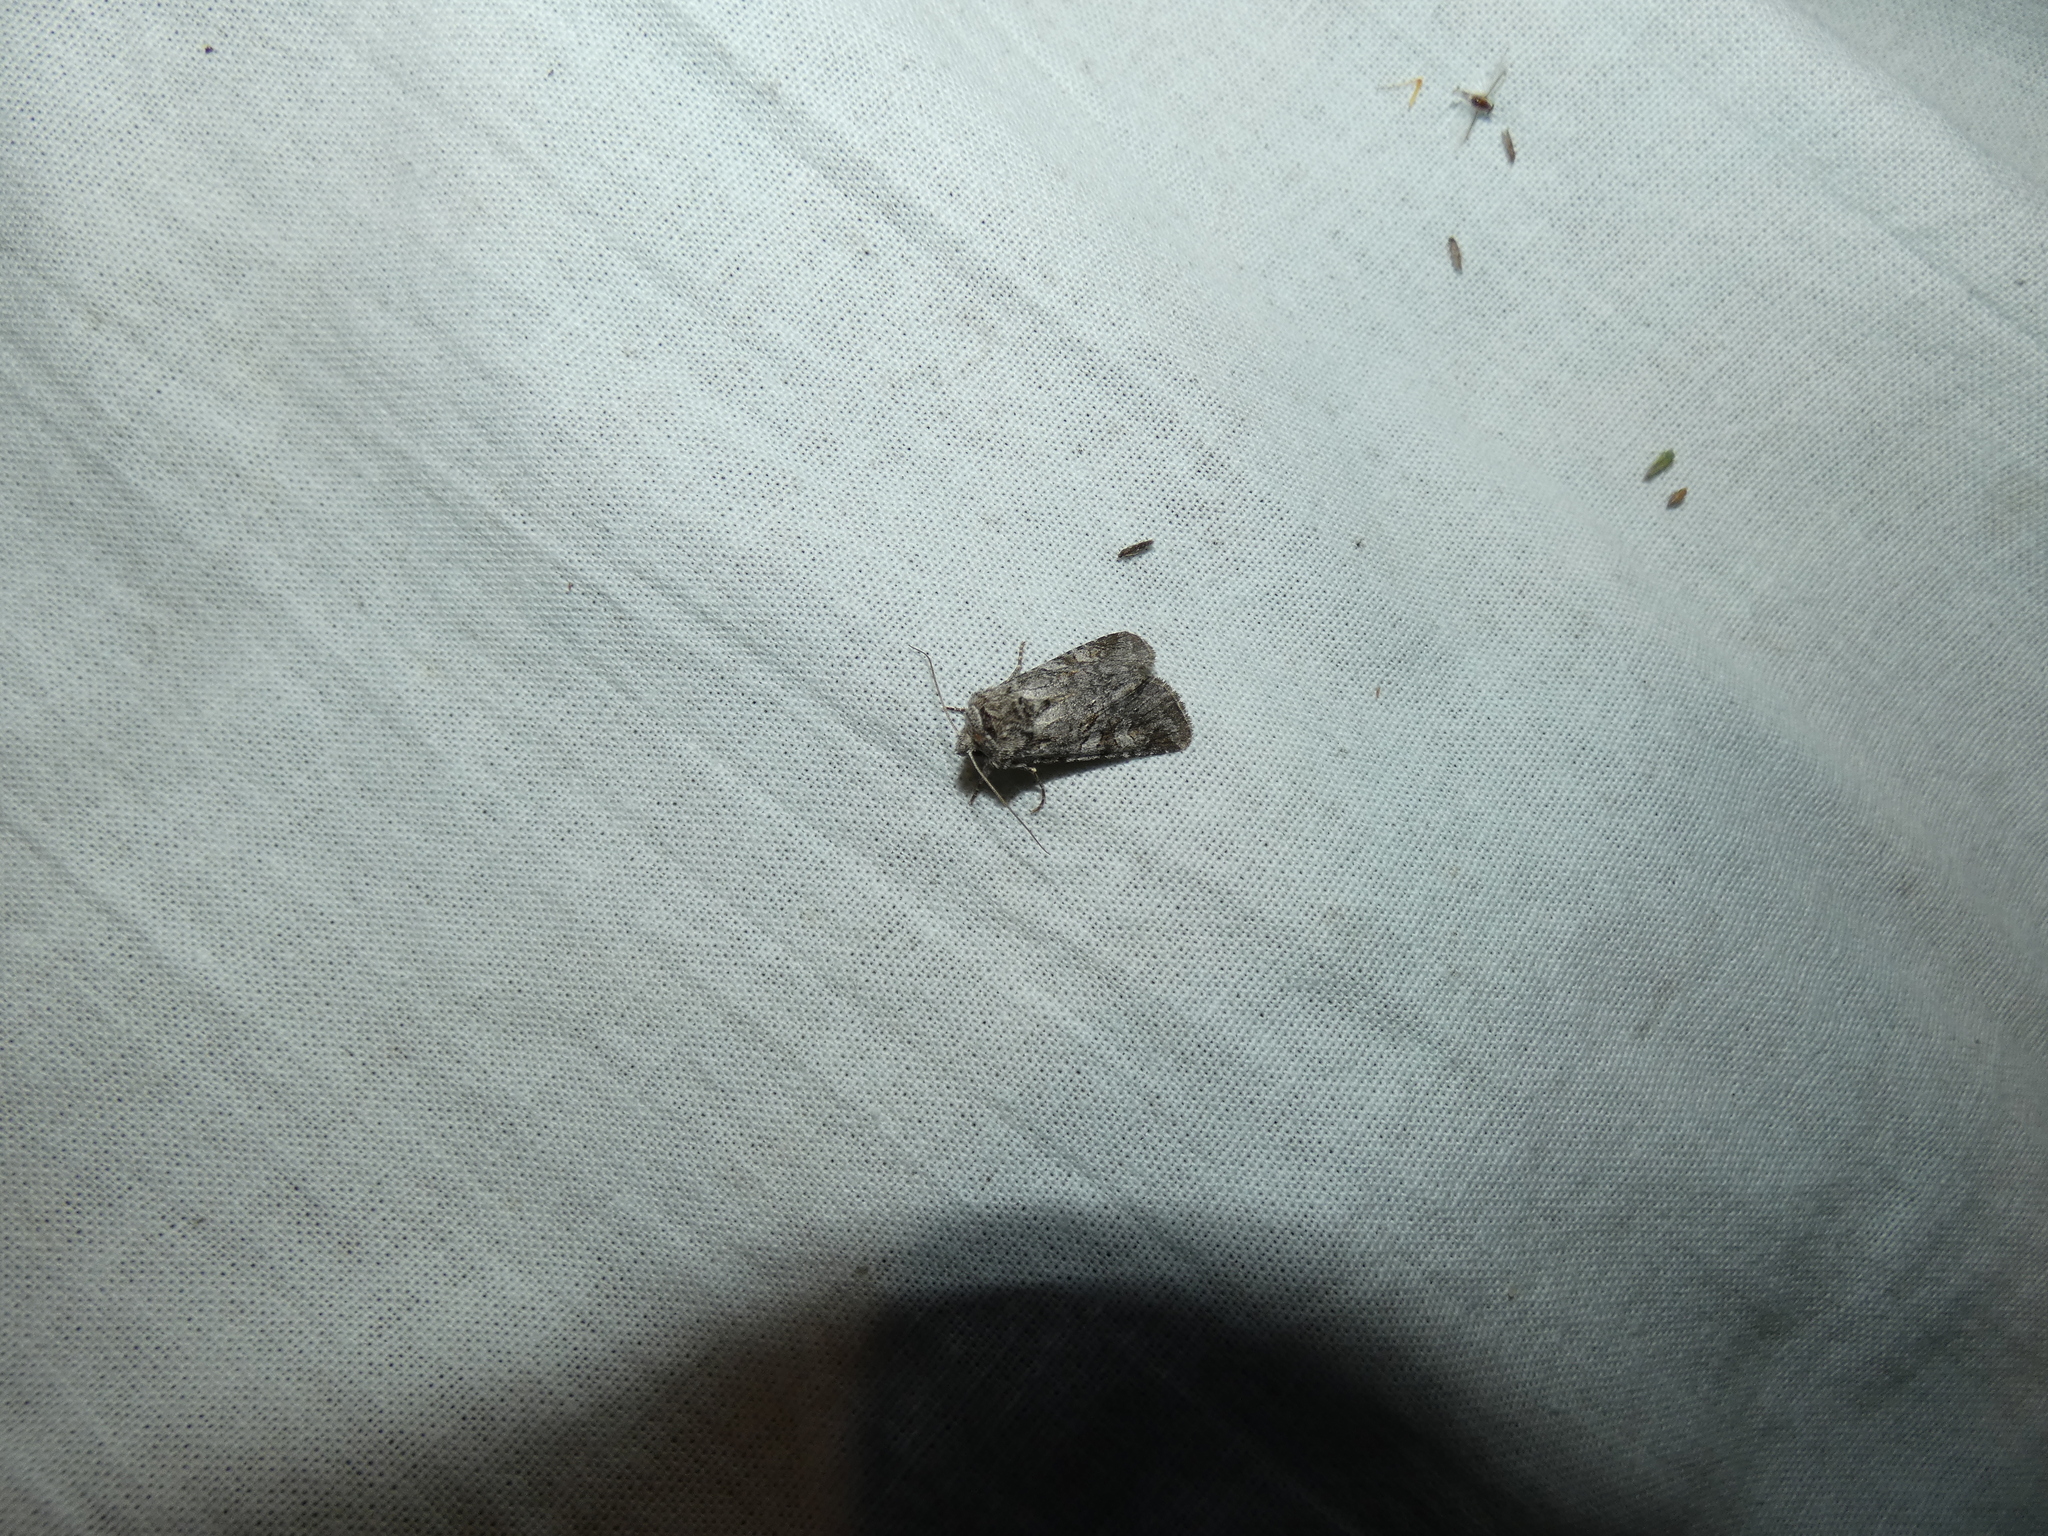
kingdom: Animalia
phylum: Arthropoda
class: Insecta
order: Lepidoptera
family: Noctuidae
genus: Brachylomia
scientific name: Brachylomia viminalis
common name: Minor shoulder-knot
